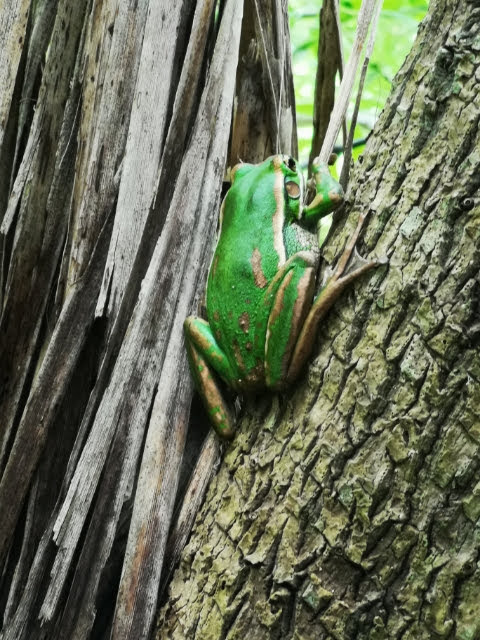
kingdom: Animalia
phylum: Chordata
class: Amphibia
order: Anura
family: Pelodryadidae
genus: Ranoidea
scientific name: Ranoidea aurea
